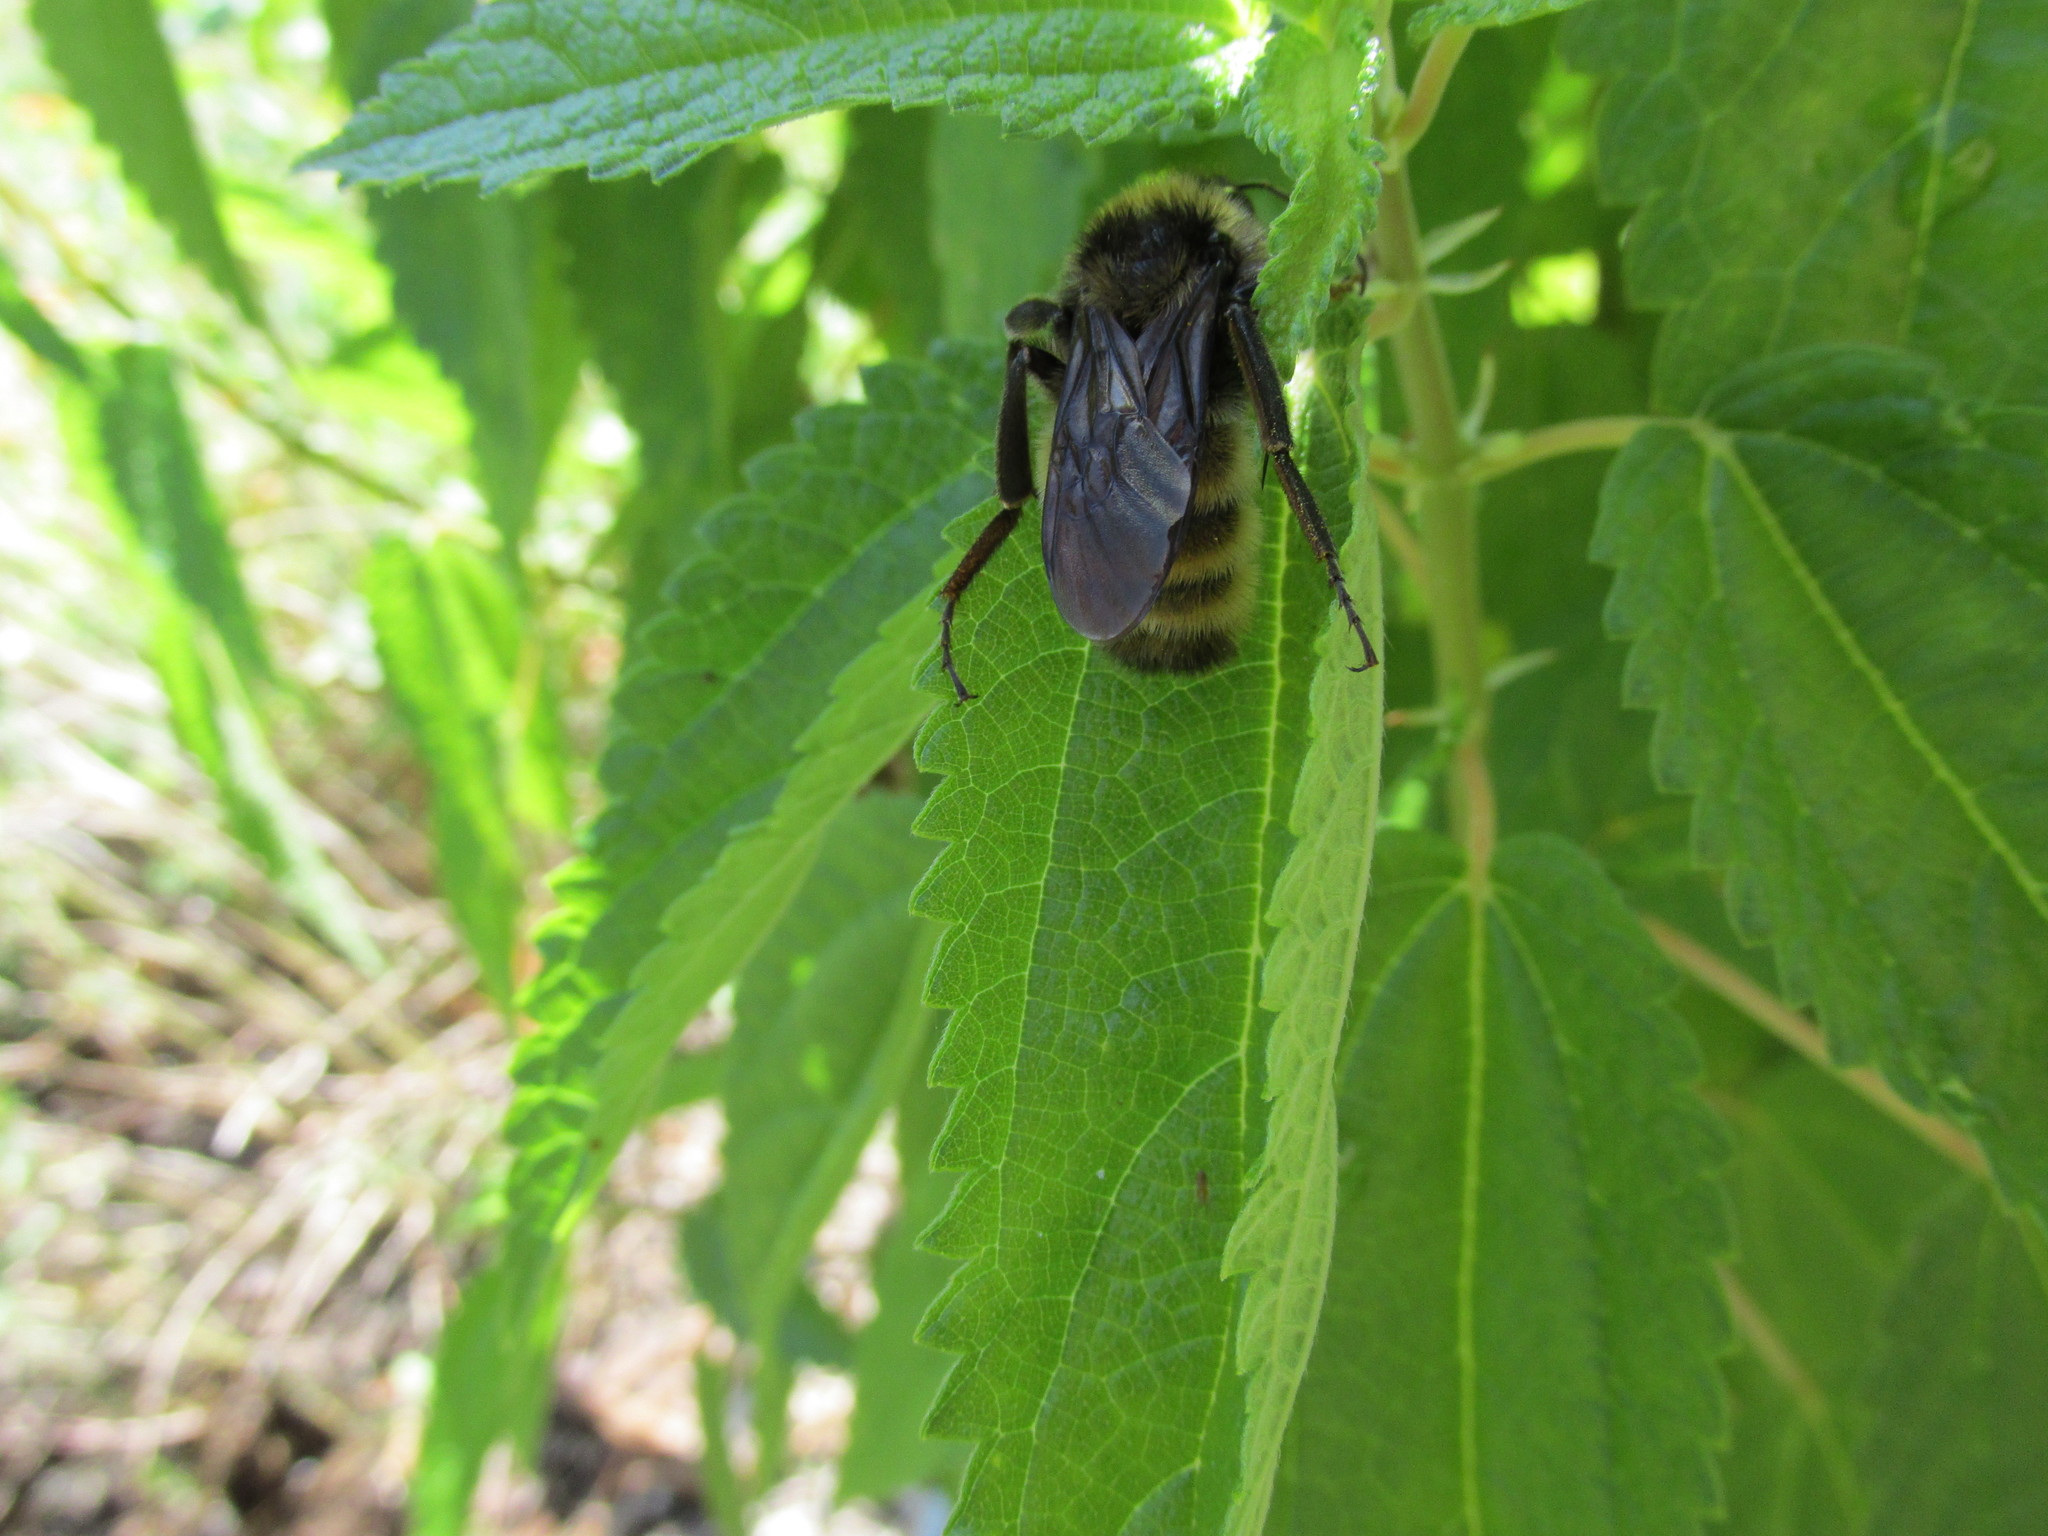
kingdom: Animalia
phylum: Arthropoda
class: Insecta
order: Hymenoptera
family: Apidae
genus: Bombus
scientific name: Bombus pensylvanicus
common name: Bumble bee
